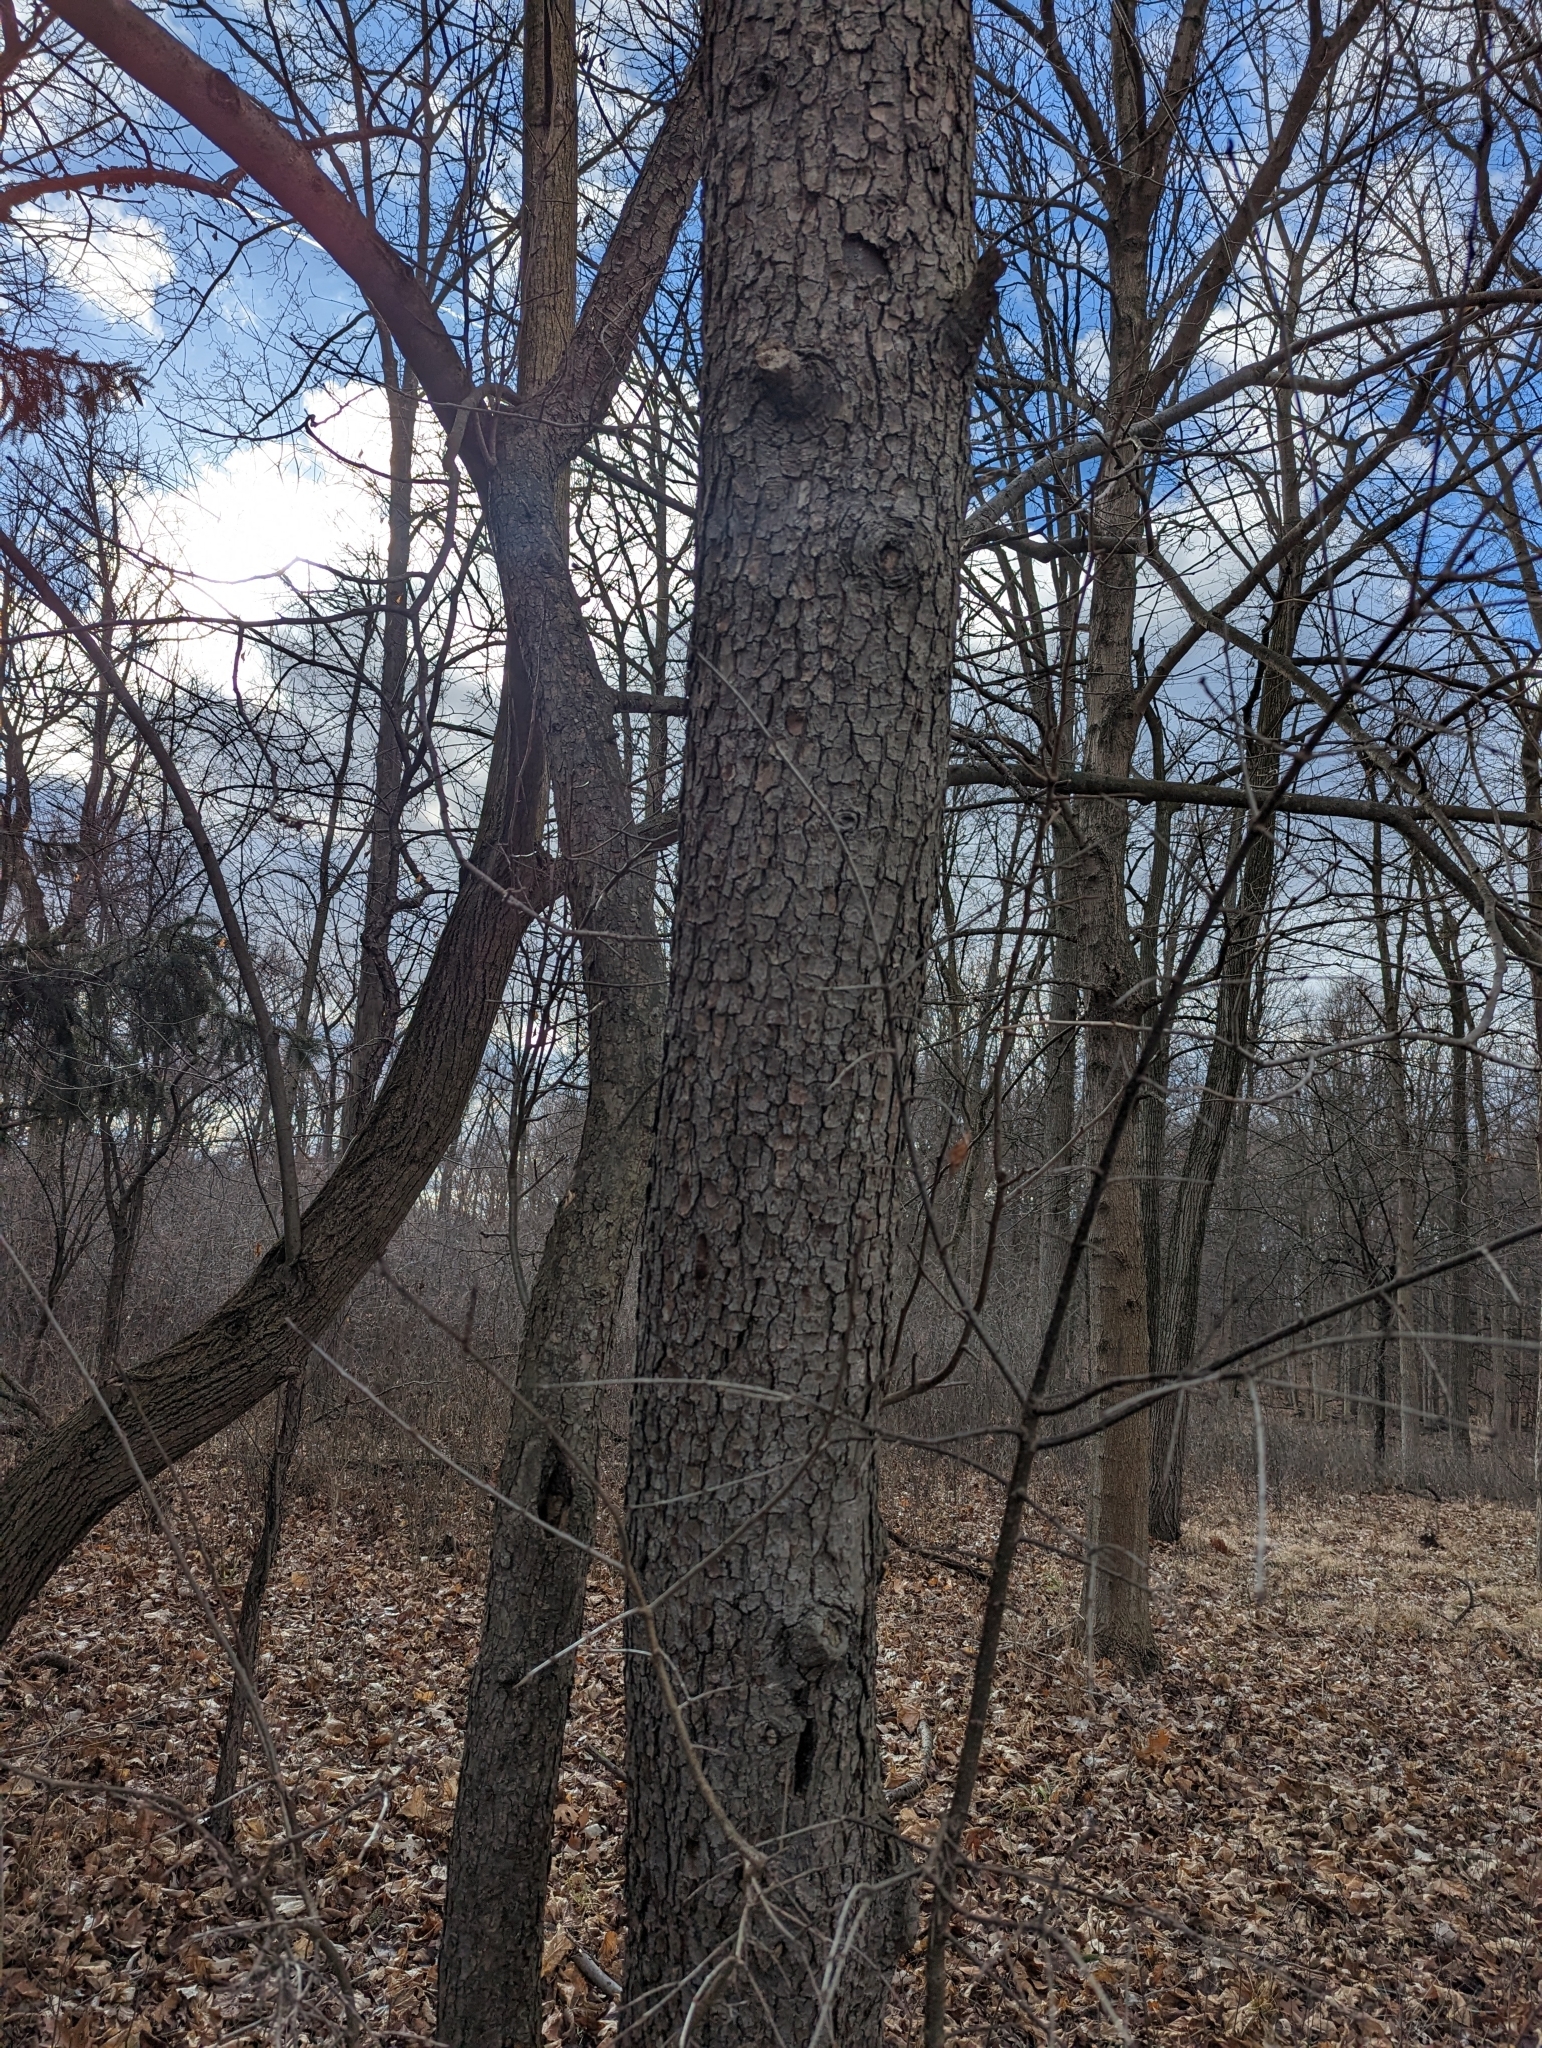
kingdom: Plantae
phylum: Tracheophyta
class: Magnoliopsida
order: Rosales
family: Rosaceae
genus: Prunus
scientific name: Prunus serotina
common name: Black cherry
